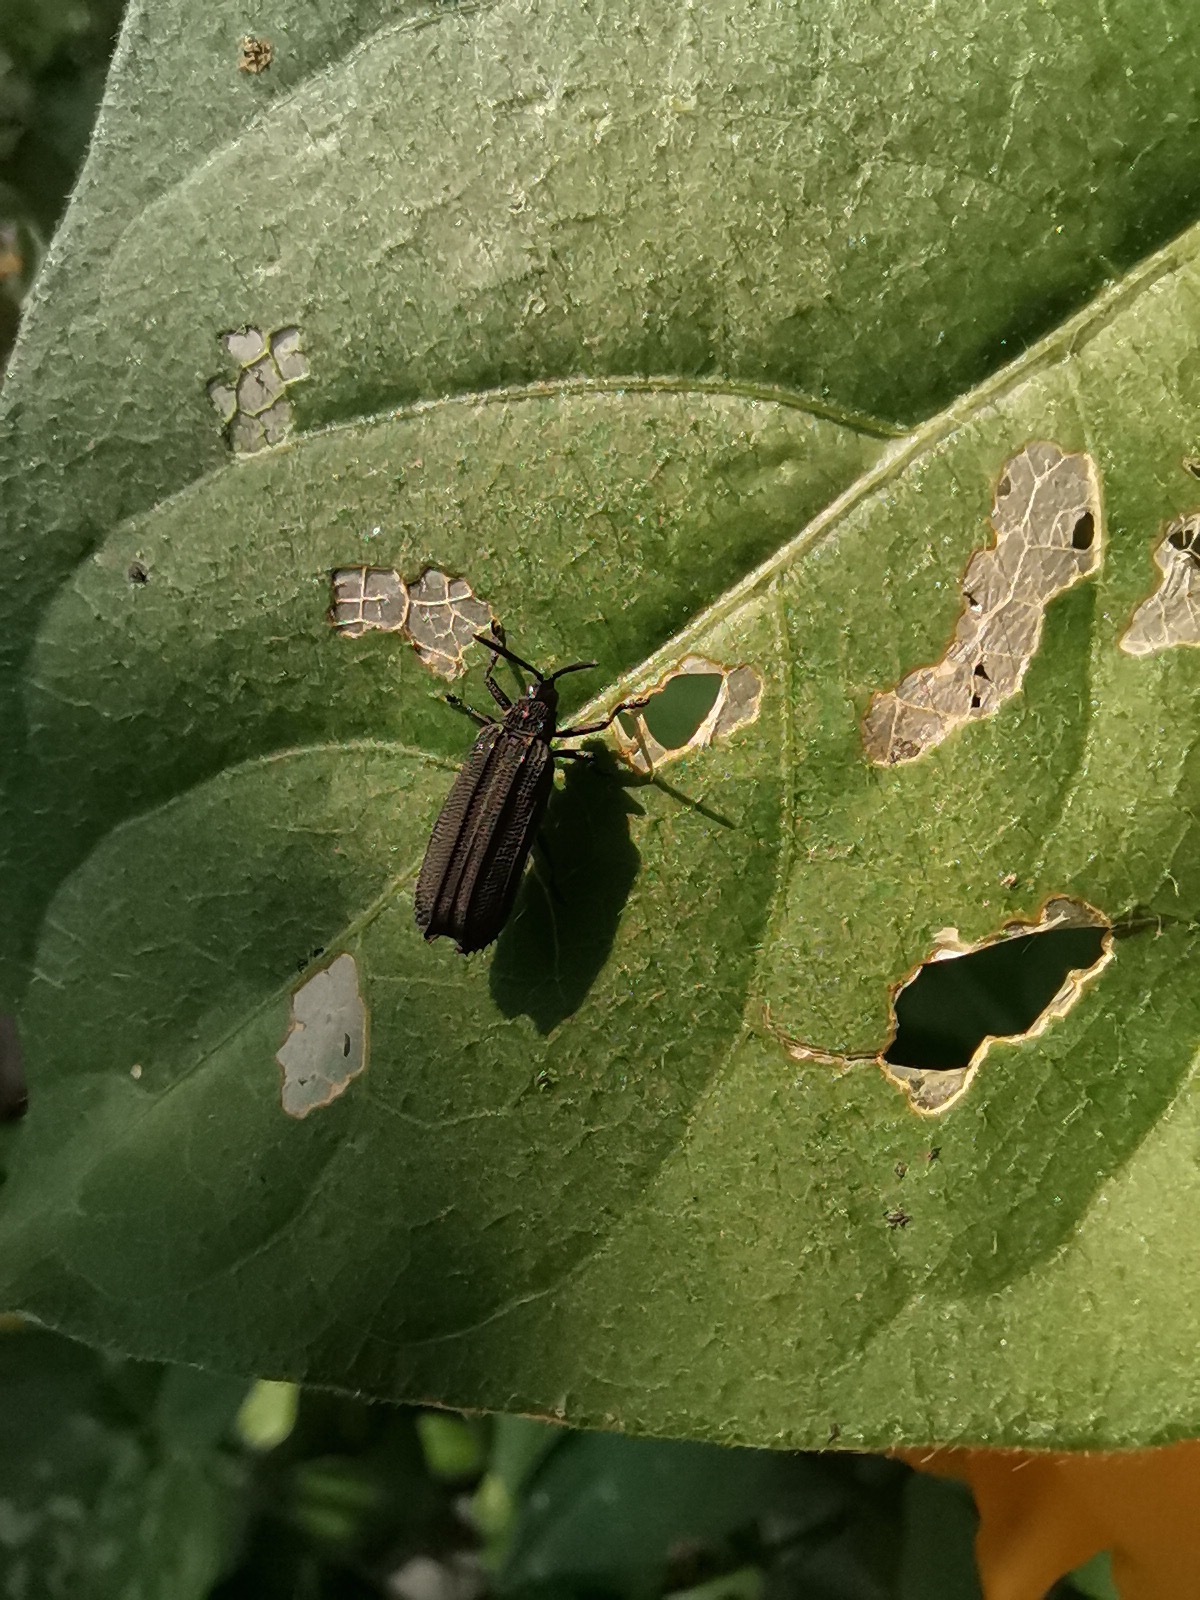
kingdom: Animalia
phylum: Arthropoda
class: Insecta
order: Coleoptera
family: Chrysomelidae
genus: Xenochalepus
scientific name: Xenochalepus maculicollis
